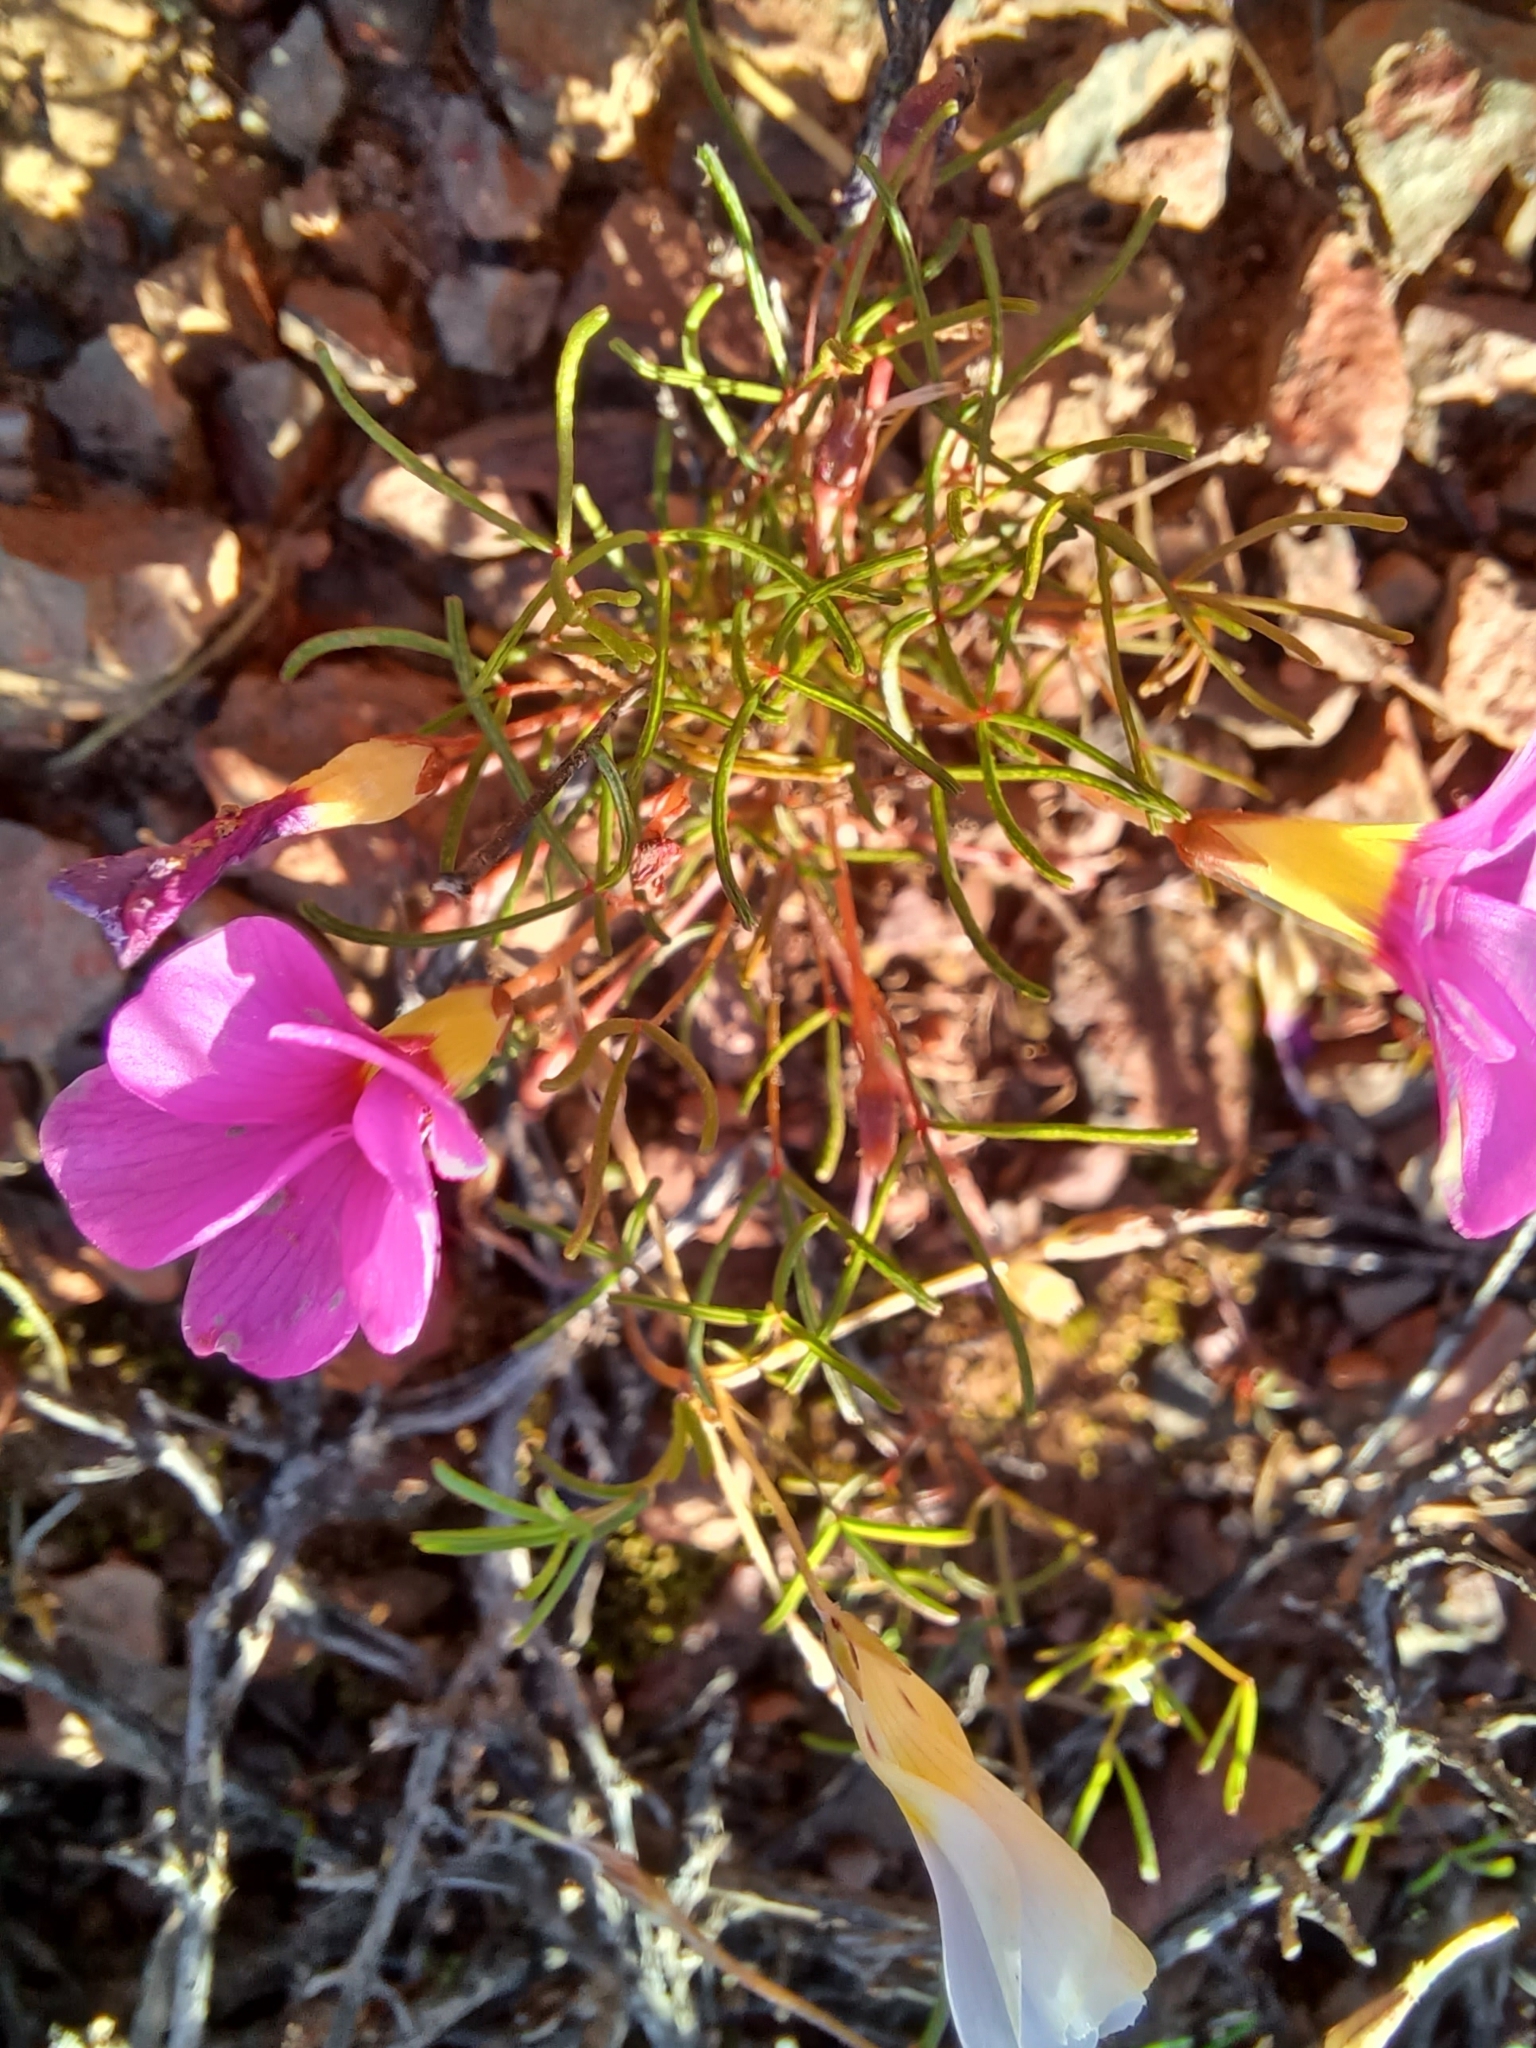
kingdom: Plantae
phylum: Tracheophyta
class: Magnoliopsida
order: Oxalidales
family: Oxalidaceae
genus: Oxalis
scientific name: Oxalis leptogramma
